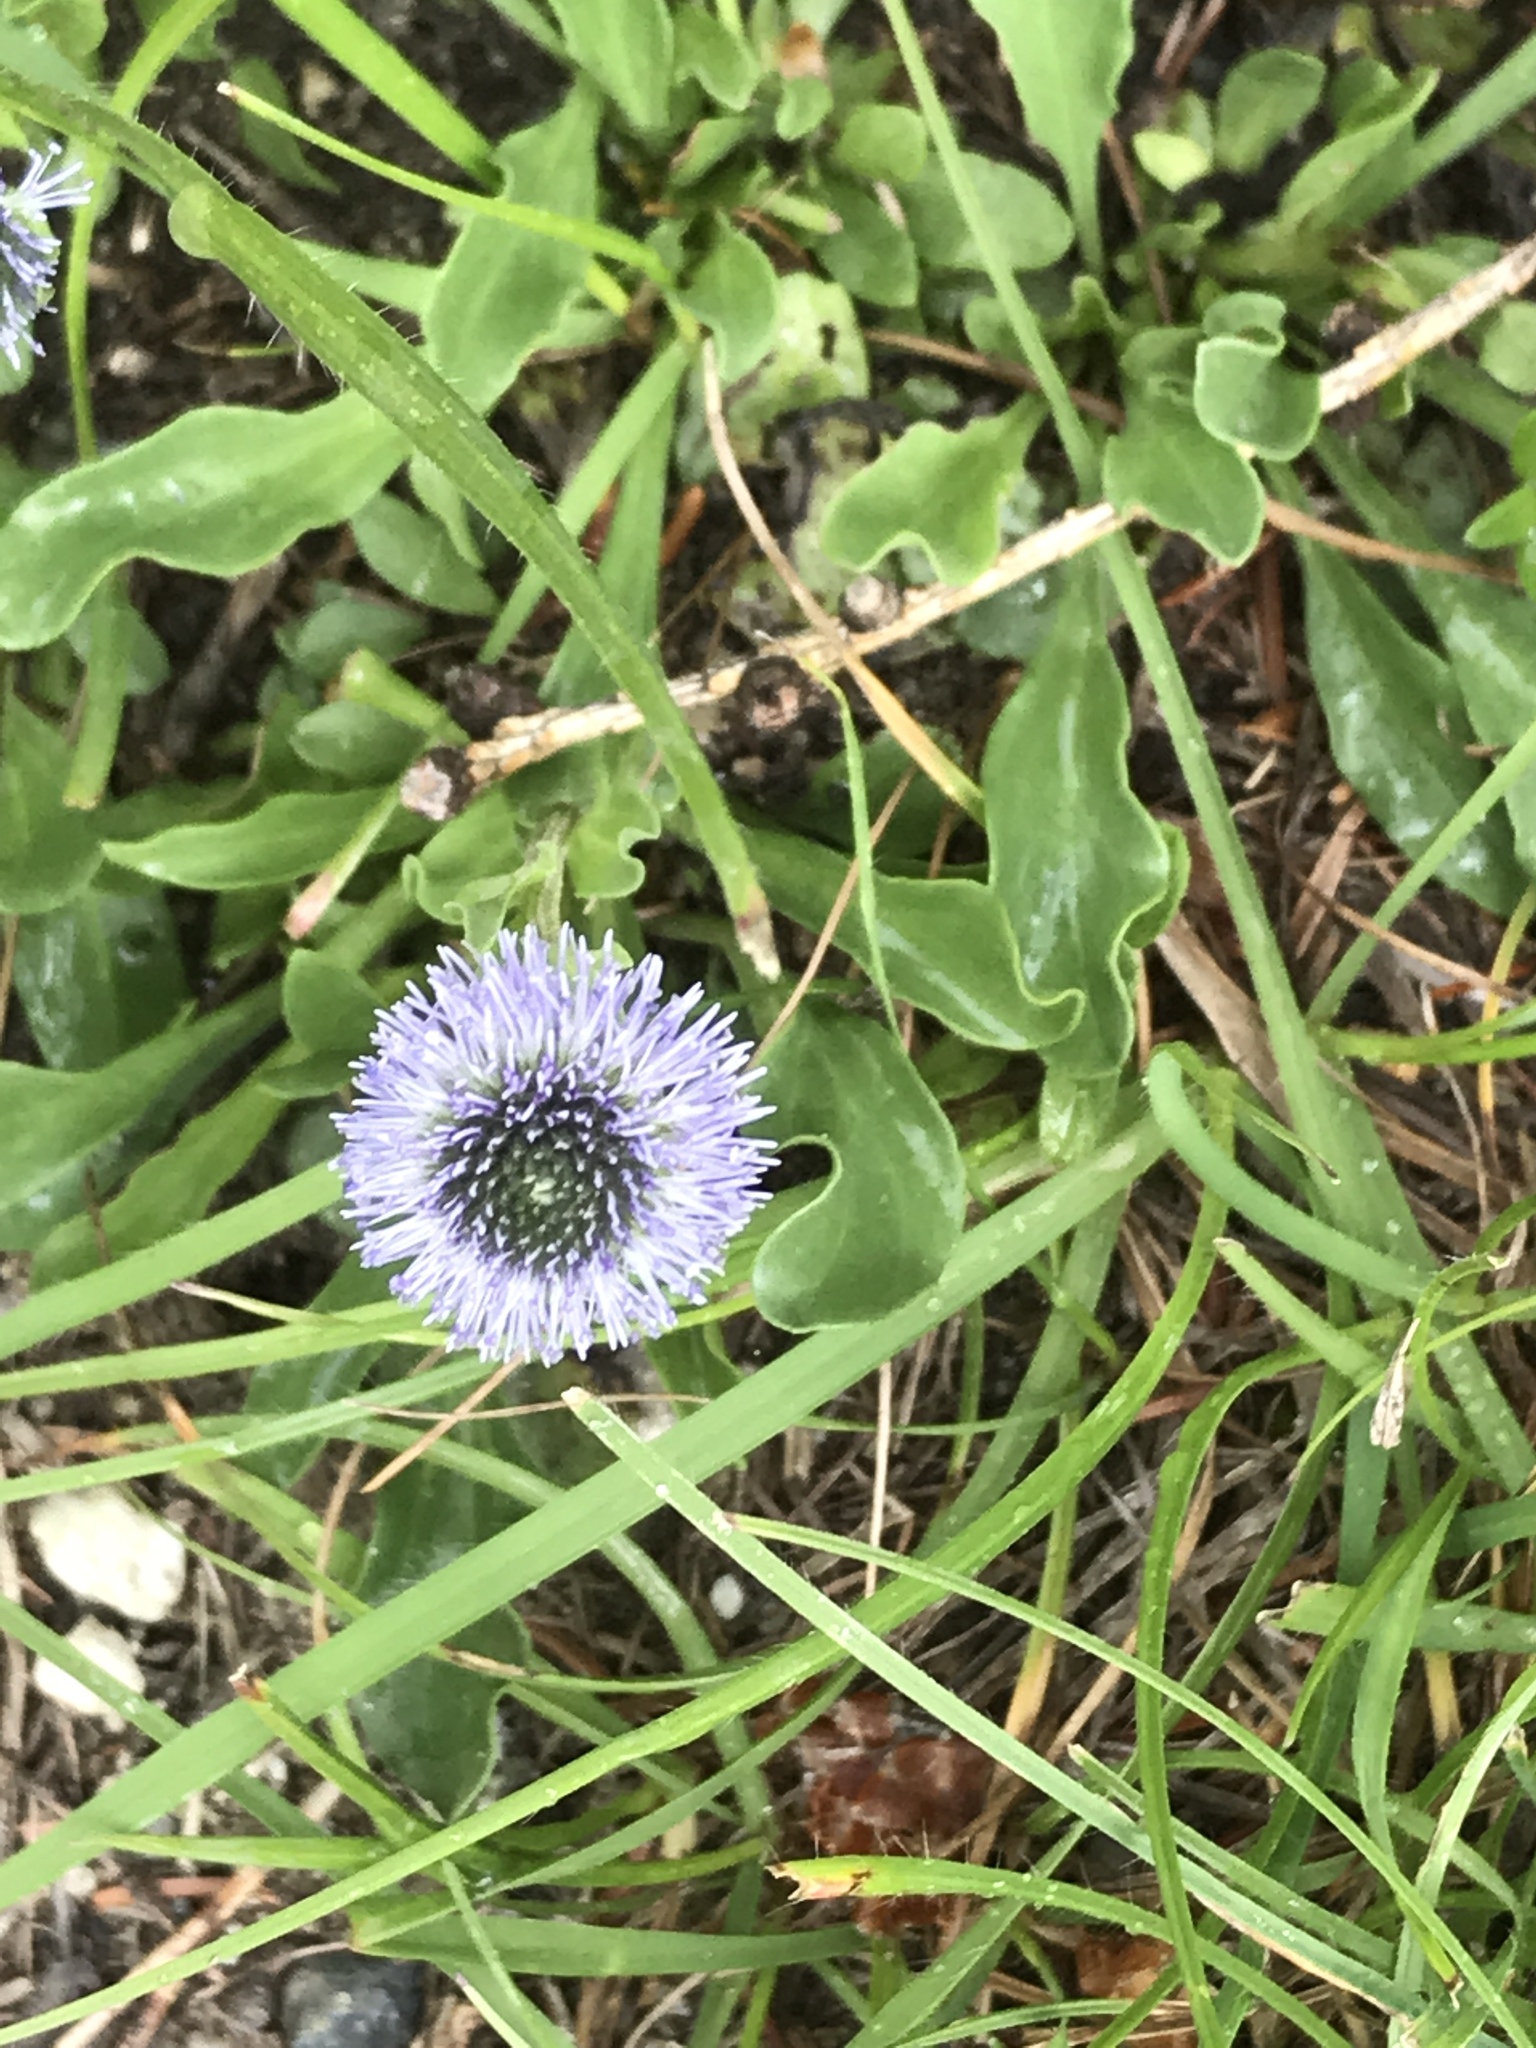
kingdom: Plantae
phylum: Tracheophyta
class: Magnoliopsida
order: Lamiales
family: Plantaginaceae
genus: Globularia
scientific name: Globularia bisnagarica
